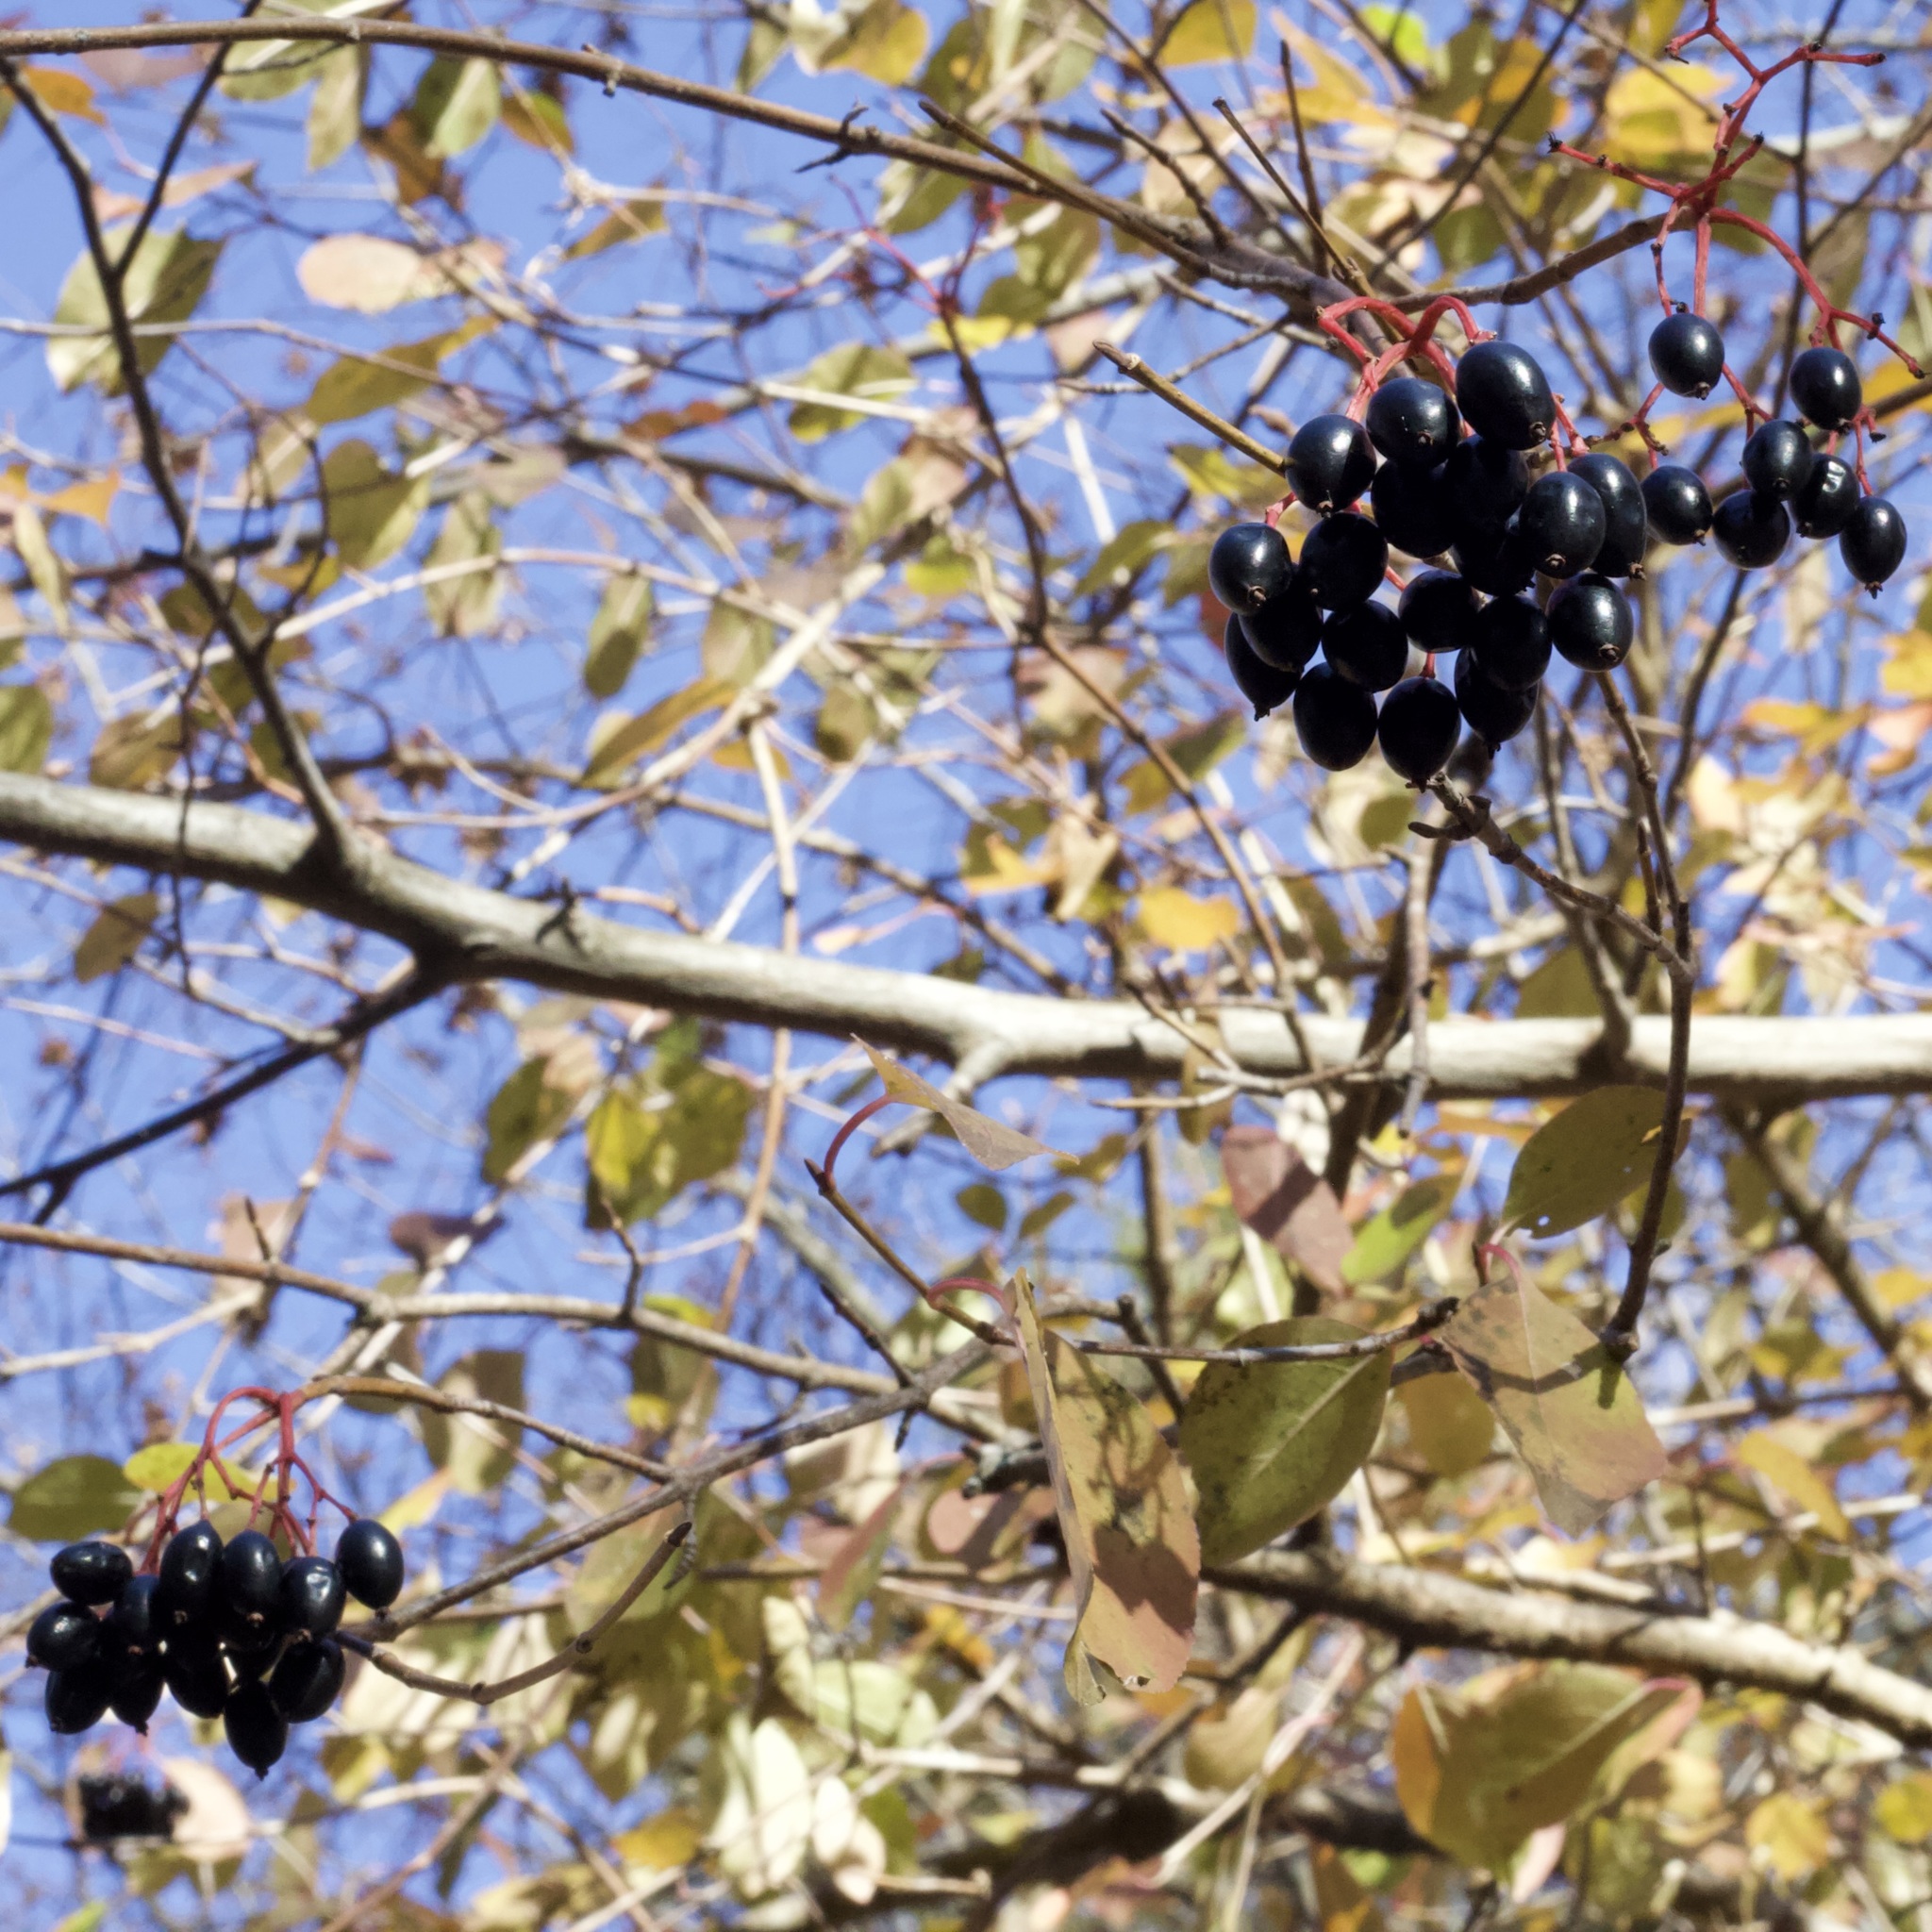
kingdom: Plantae
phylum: Tracheophyta
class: Magnoliopsida
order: Dipsacales
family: Viburnaceae
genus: Viburnum
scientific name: Viburnum prunifolium
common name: Black haw
